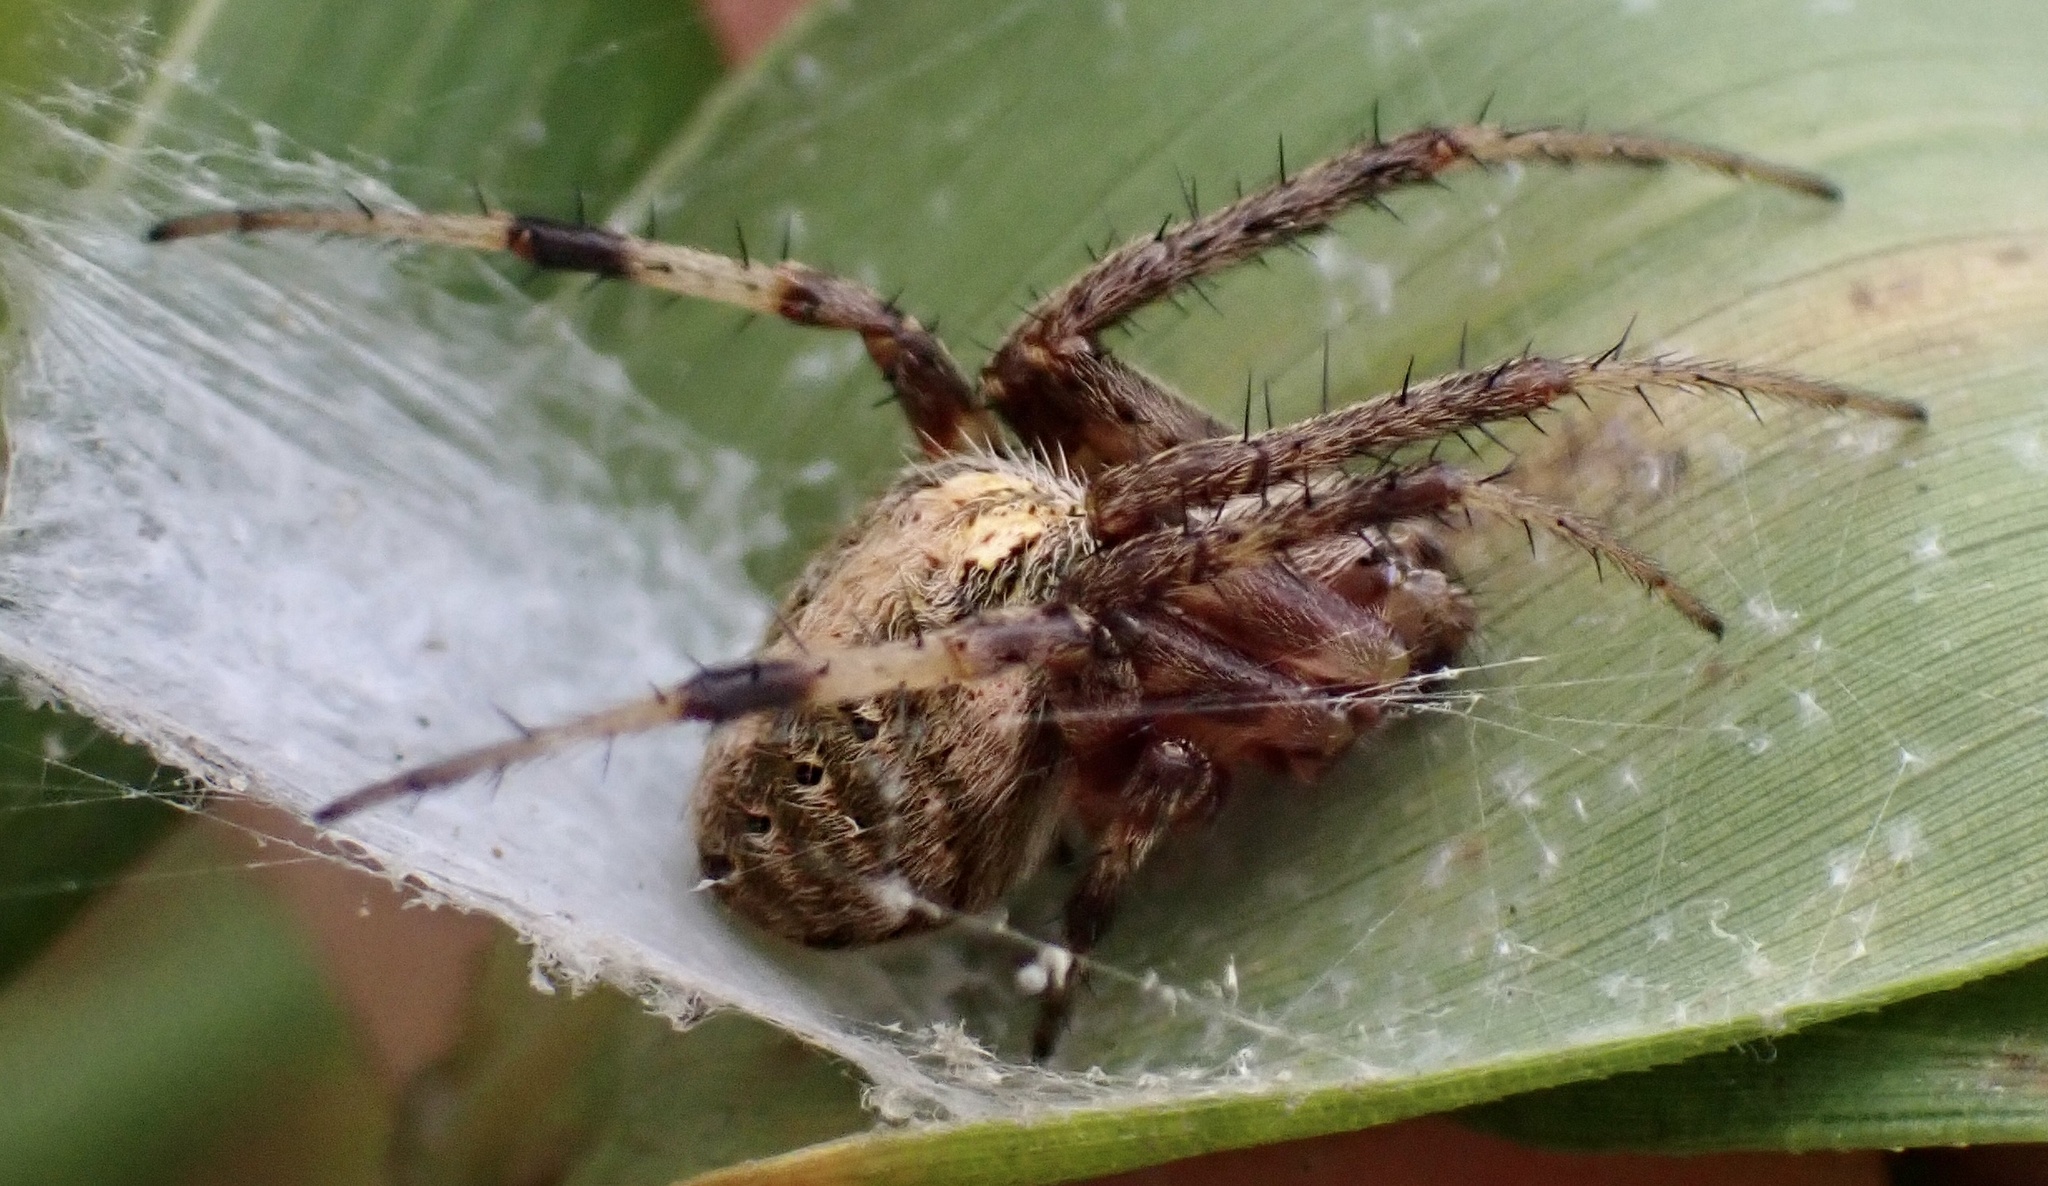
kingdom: Animalia
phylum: Arthropoda
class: Arachnida
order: Araneae
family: Araneidae
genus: Neoscona
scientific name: Neoscona arabesca
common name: Orb weavers
